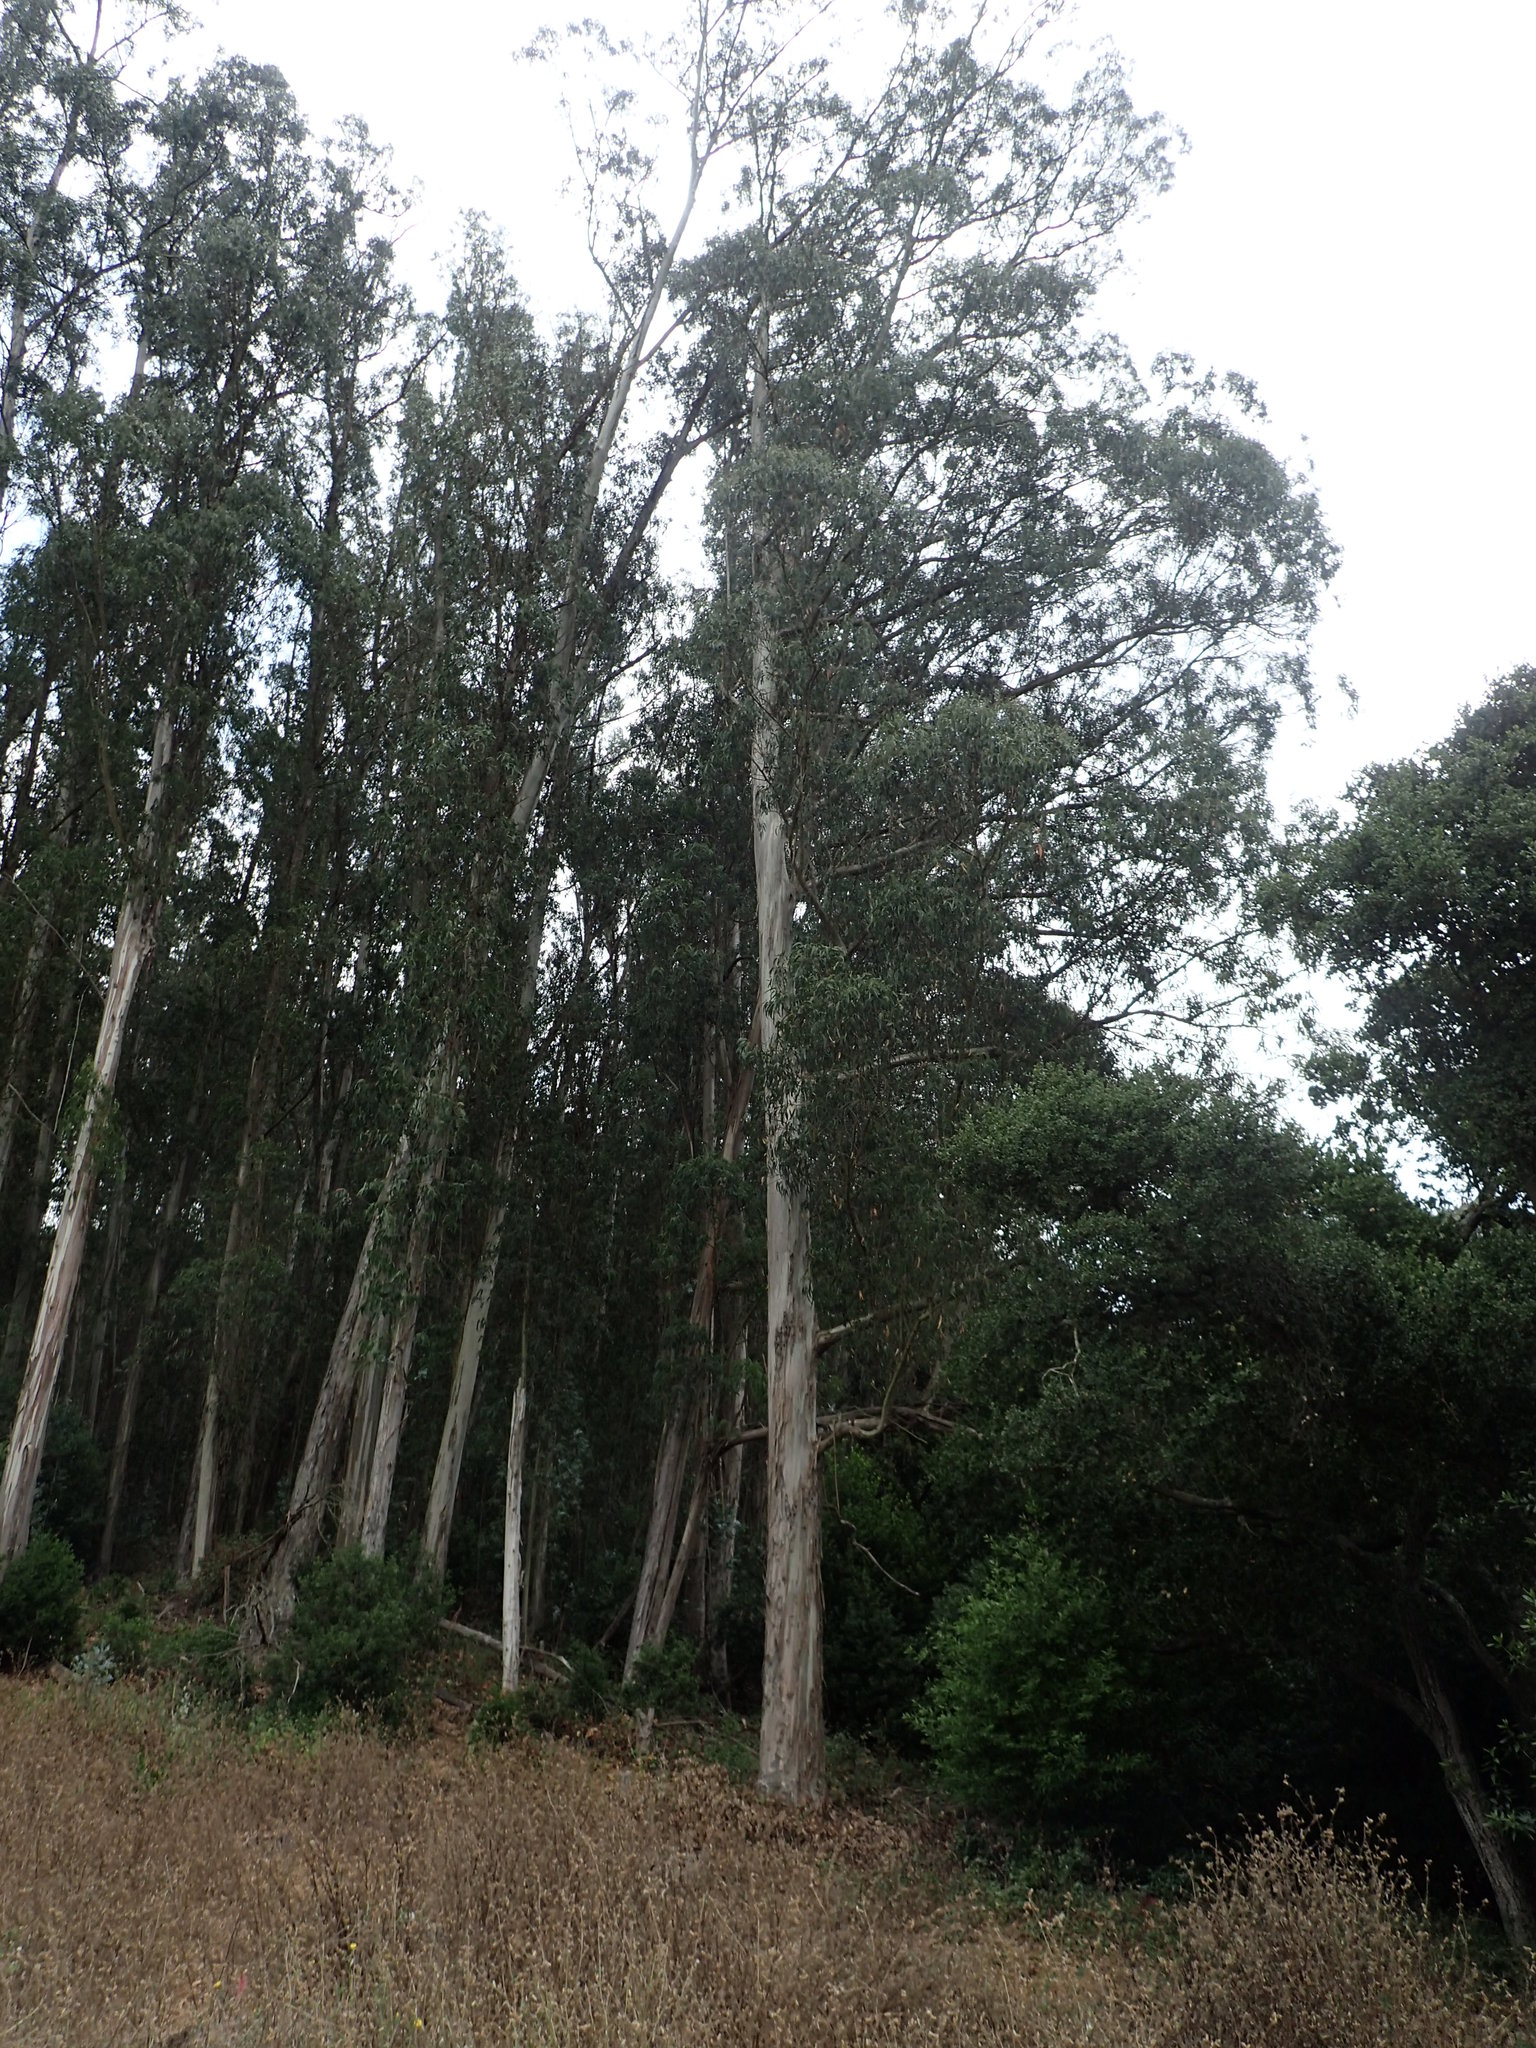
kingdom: Plantae
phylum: Tracheophyta
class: Magnoliopsida
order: Myrtales
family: Myrtaceae
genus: Eucalyptus
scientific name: Eucalyptus globulus
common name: Southern blue-gum
